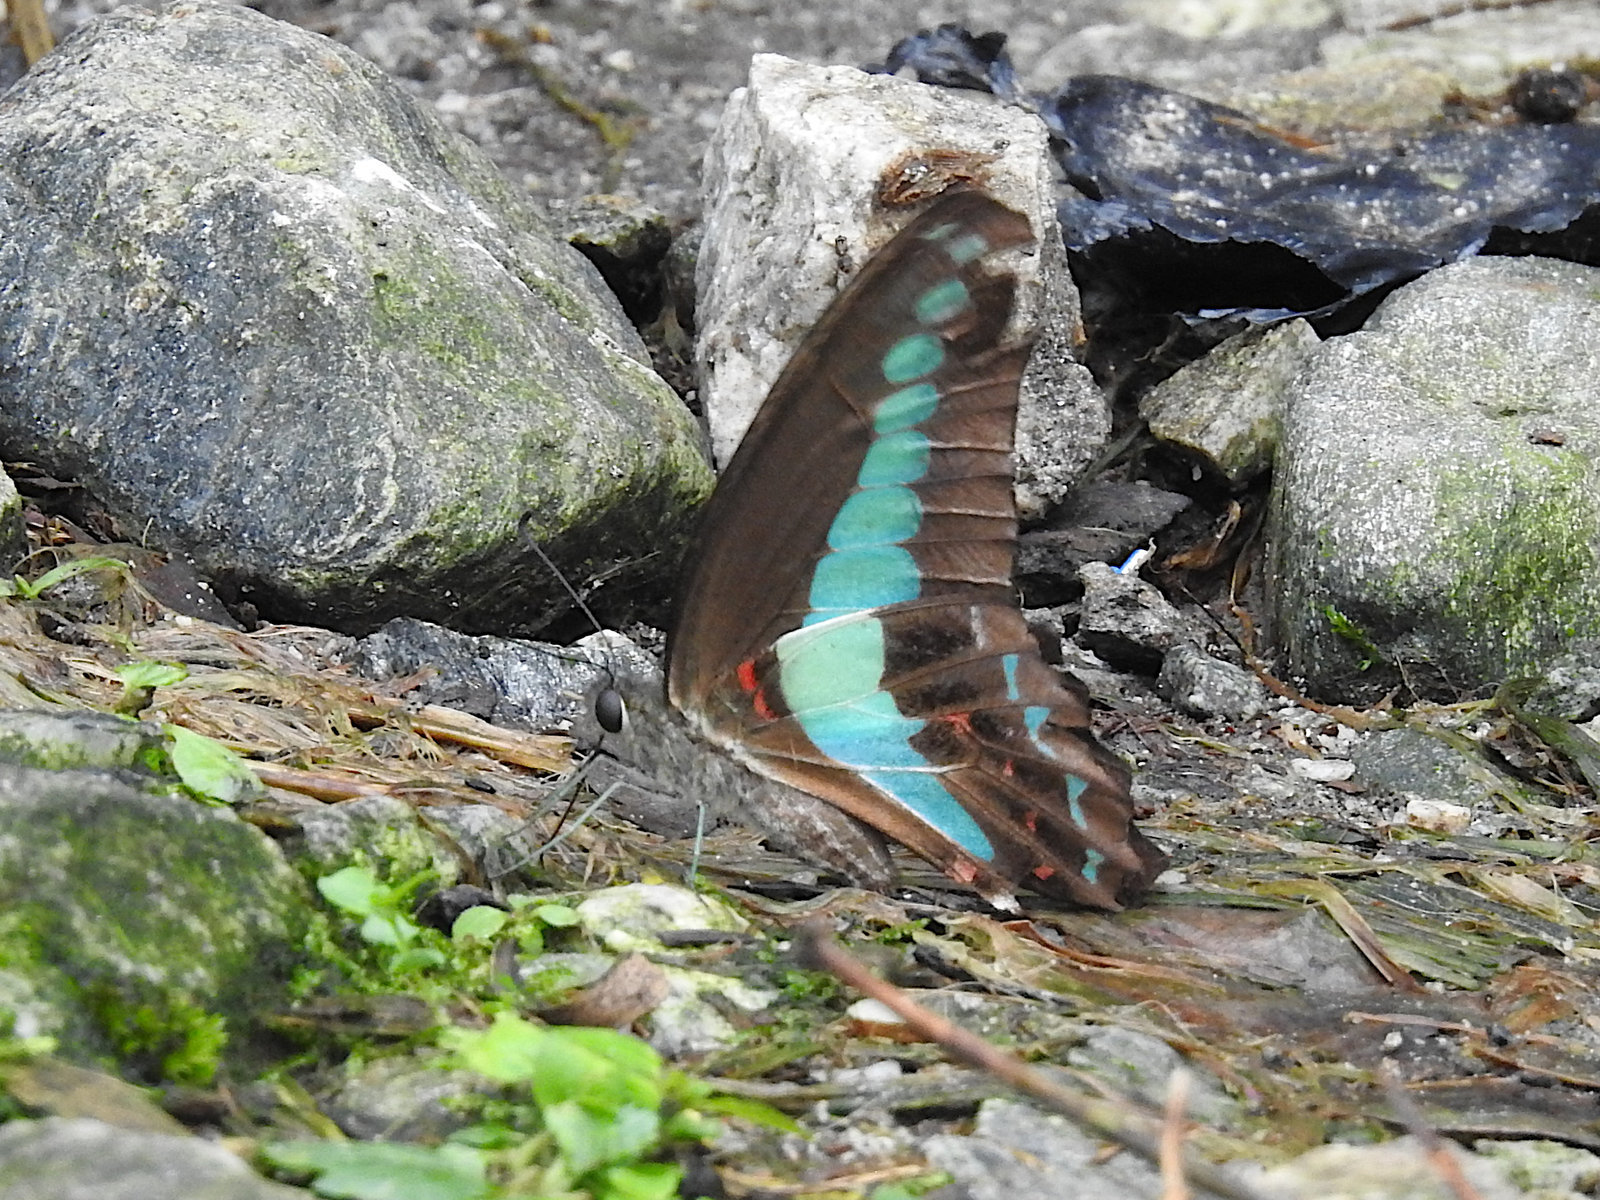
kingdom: Fungi
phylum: Ascomycota
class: Sordariomycetes
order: Microascales
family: Microascaceae
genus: Graphium
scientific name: Graphium sarpedon
